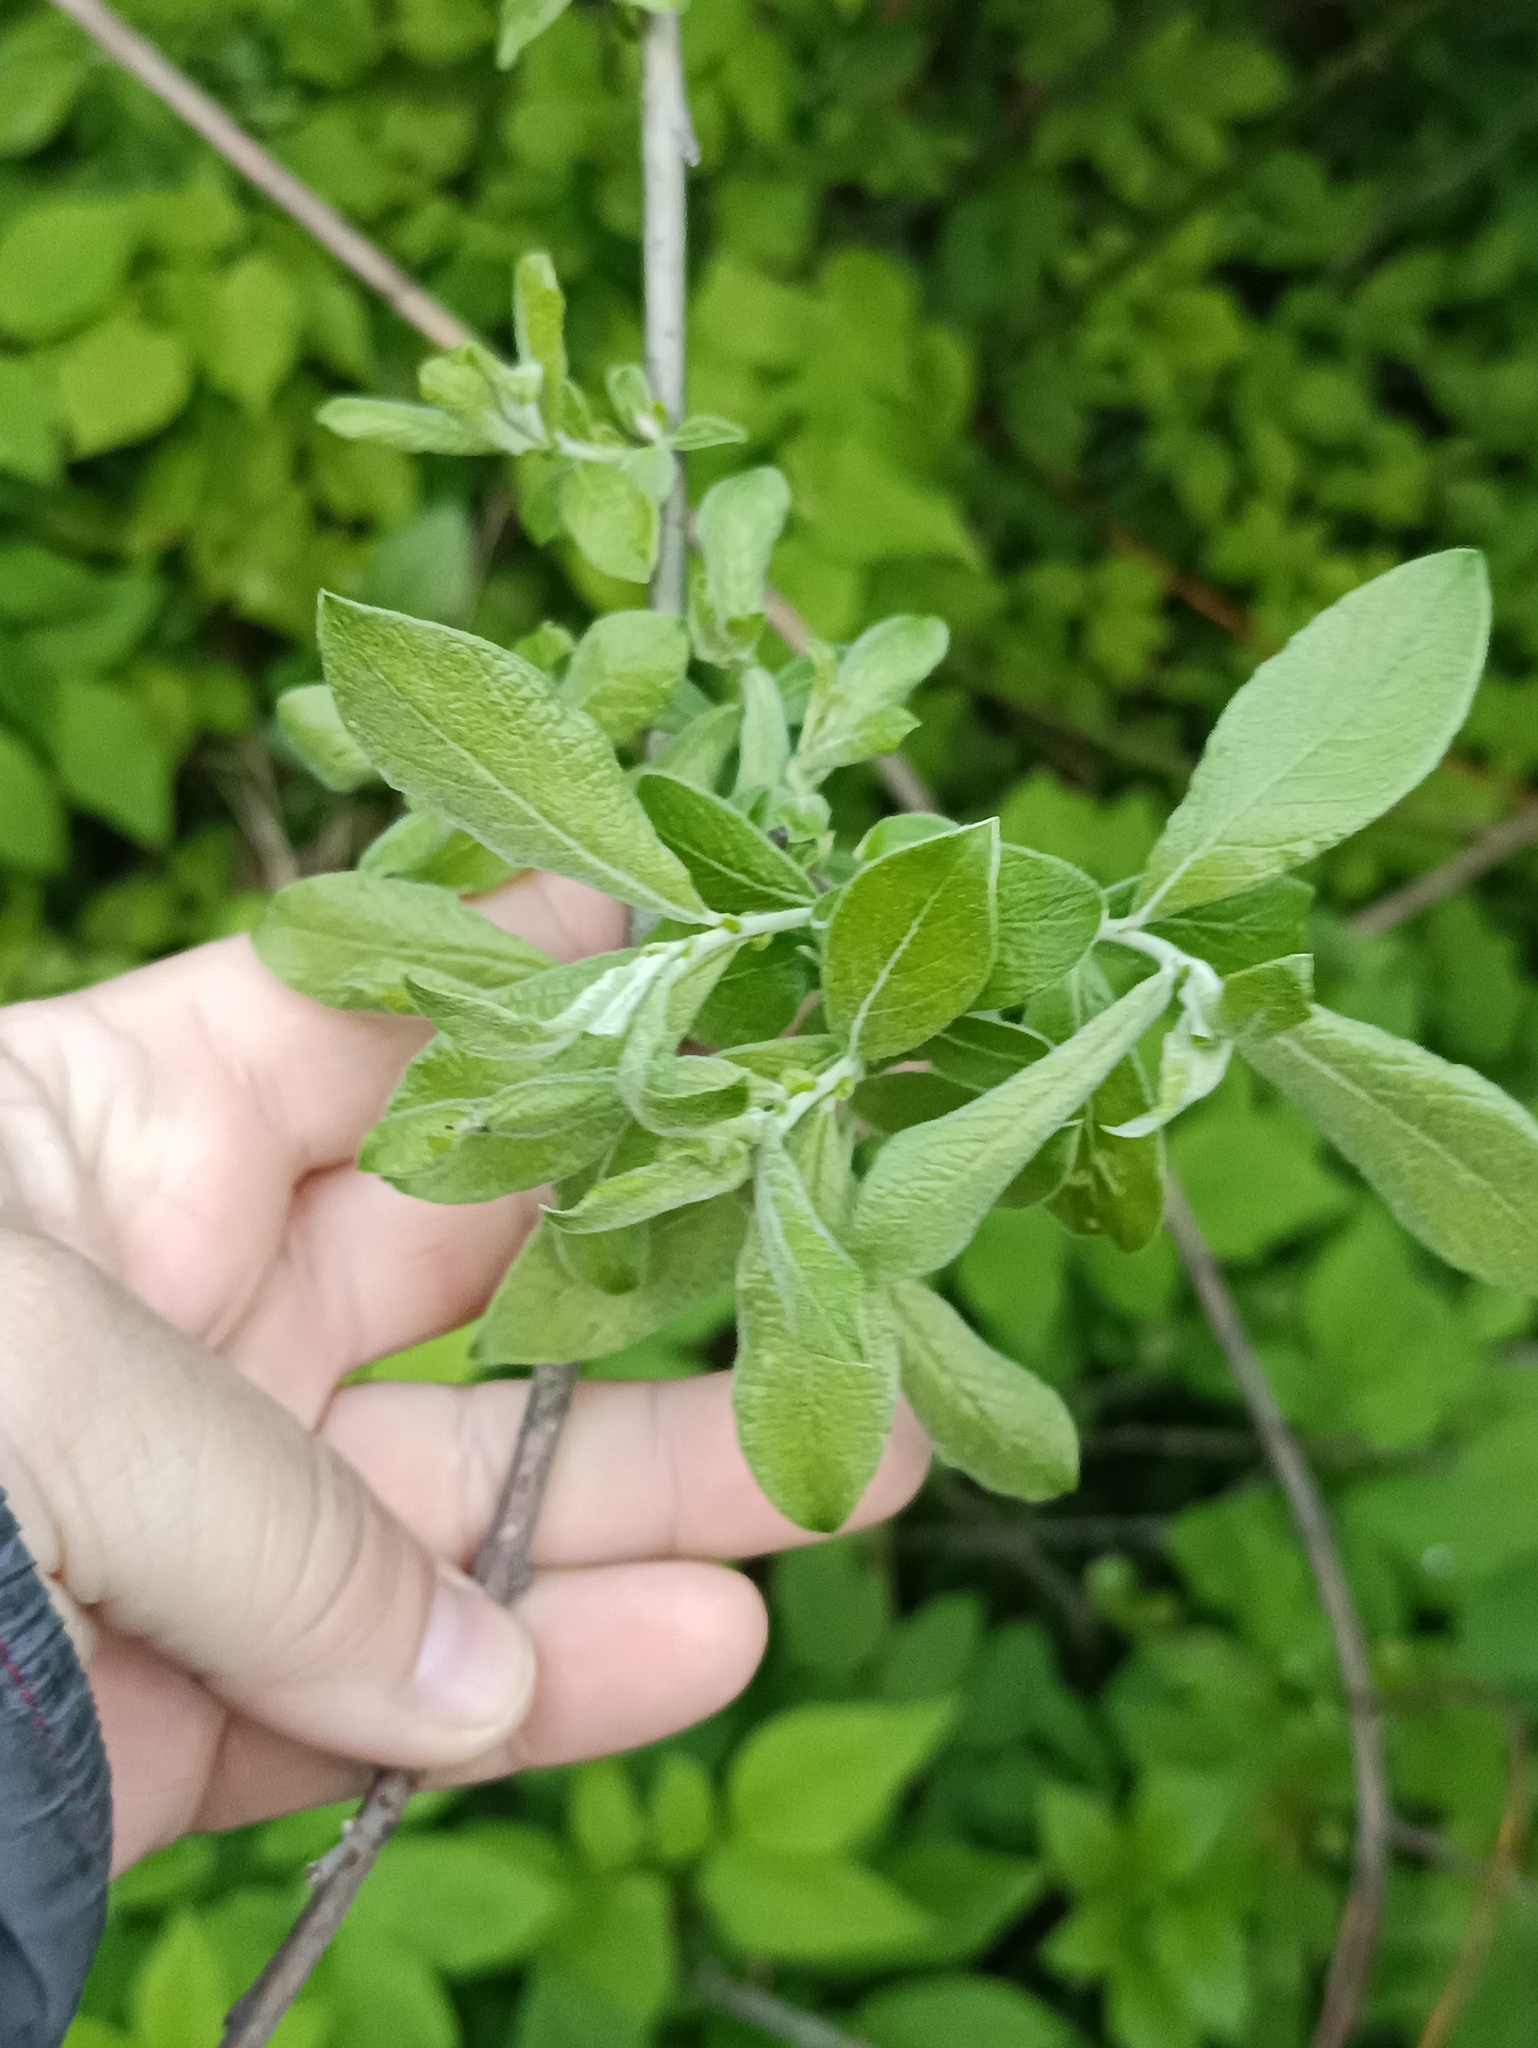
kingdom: Plantae
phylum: Tracheophyta
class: Magnoliopsida
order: Malpighiales
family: Salicaceae
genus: Salix
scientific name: Salix cinerea
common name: Common sallow
